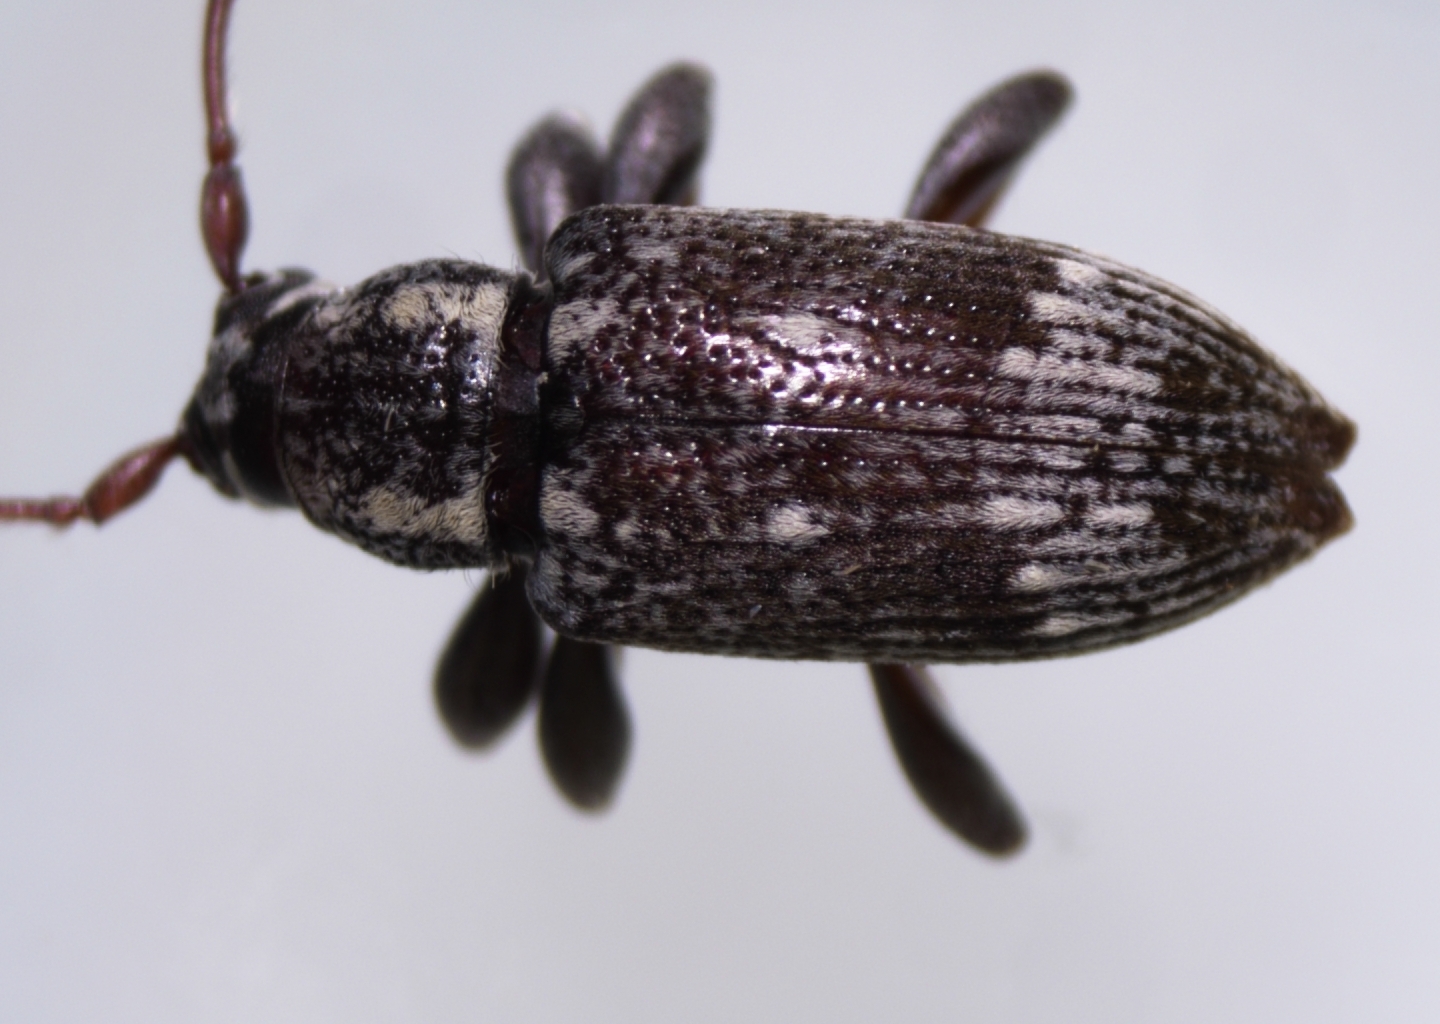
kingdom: Animalia
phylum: Arthropoda
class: Insecta
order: Coleoptera
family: Cerambycidae
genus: Oopsis
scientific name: Oopsis nutator
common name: Oopsis long-horned beetle
